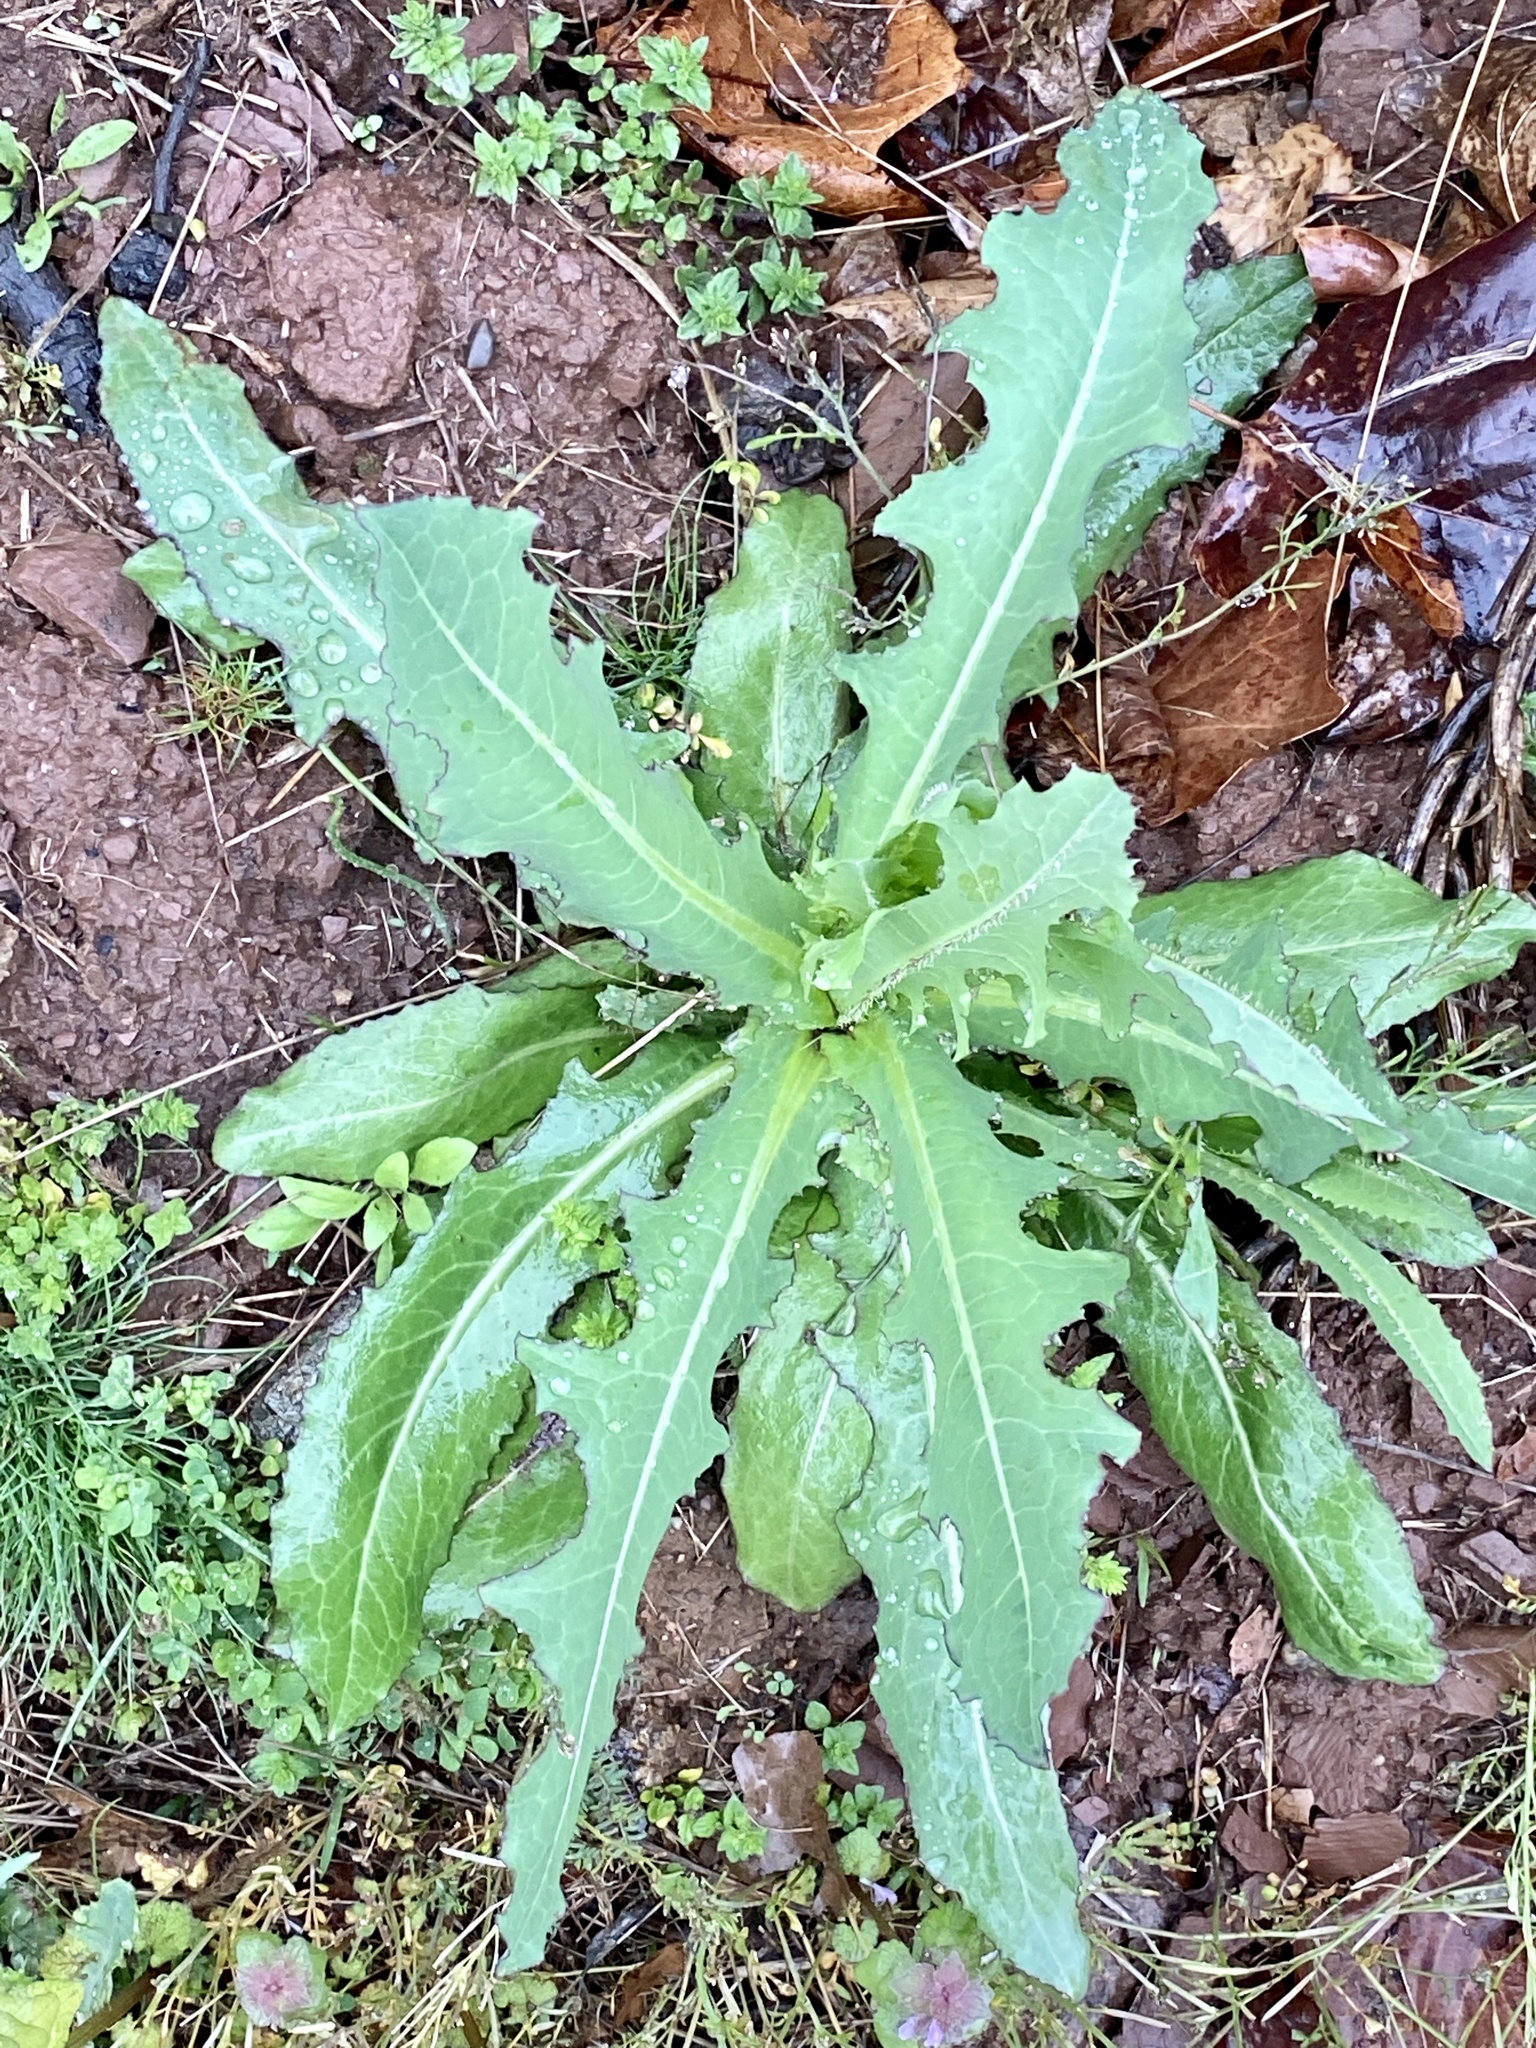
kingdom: Plantae
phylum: Tracheophyta
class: Magnoliopsida
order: Asterales
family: Asteraceae
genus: Lactuca
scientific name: Lactuca serriola
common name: Prickly lettuce
